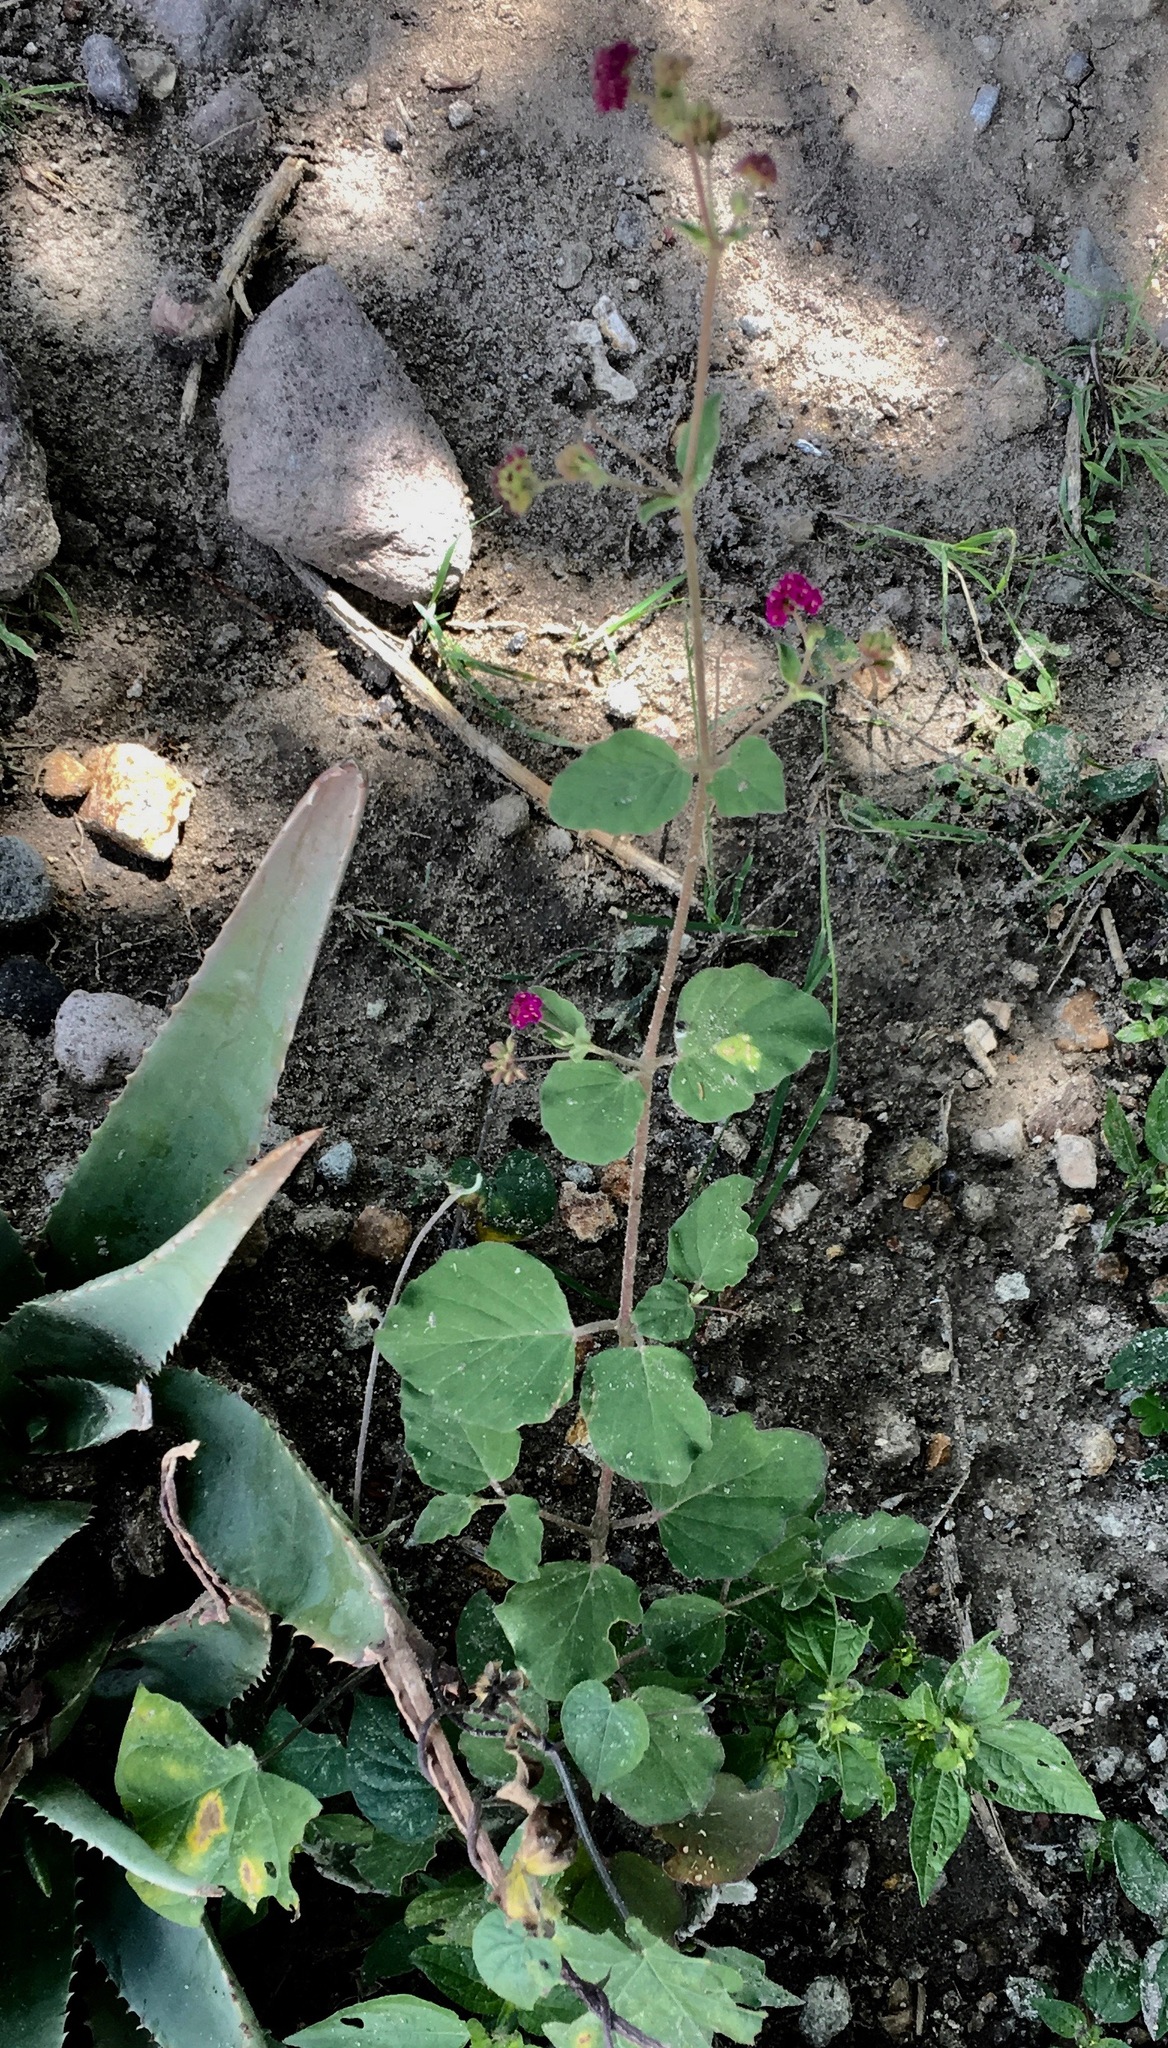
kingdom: Plantae
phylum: Tracheophyta
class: Magnoliopsida
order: Caryophyllales
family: Nyctaginaceae
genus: Boerhavia
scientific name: Boerhavia coccinea
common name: Scarlet spiderling
